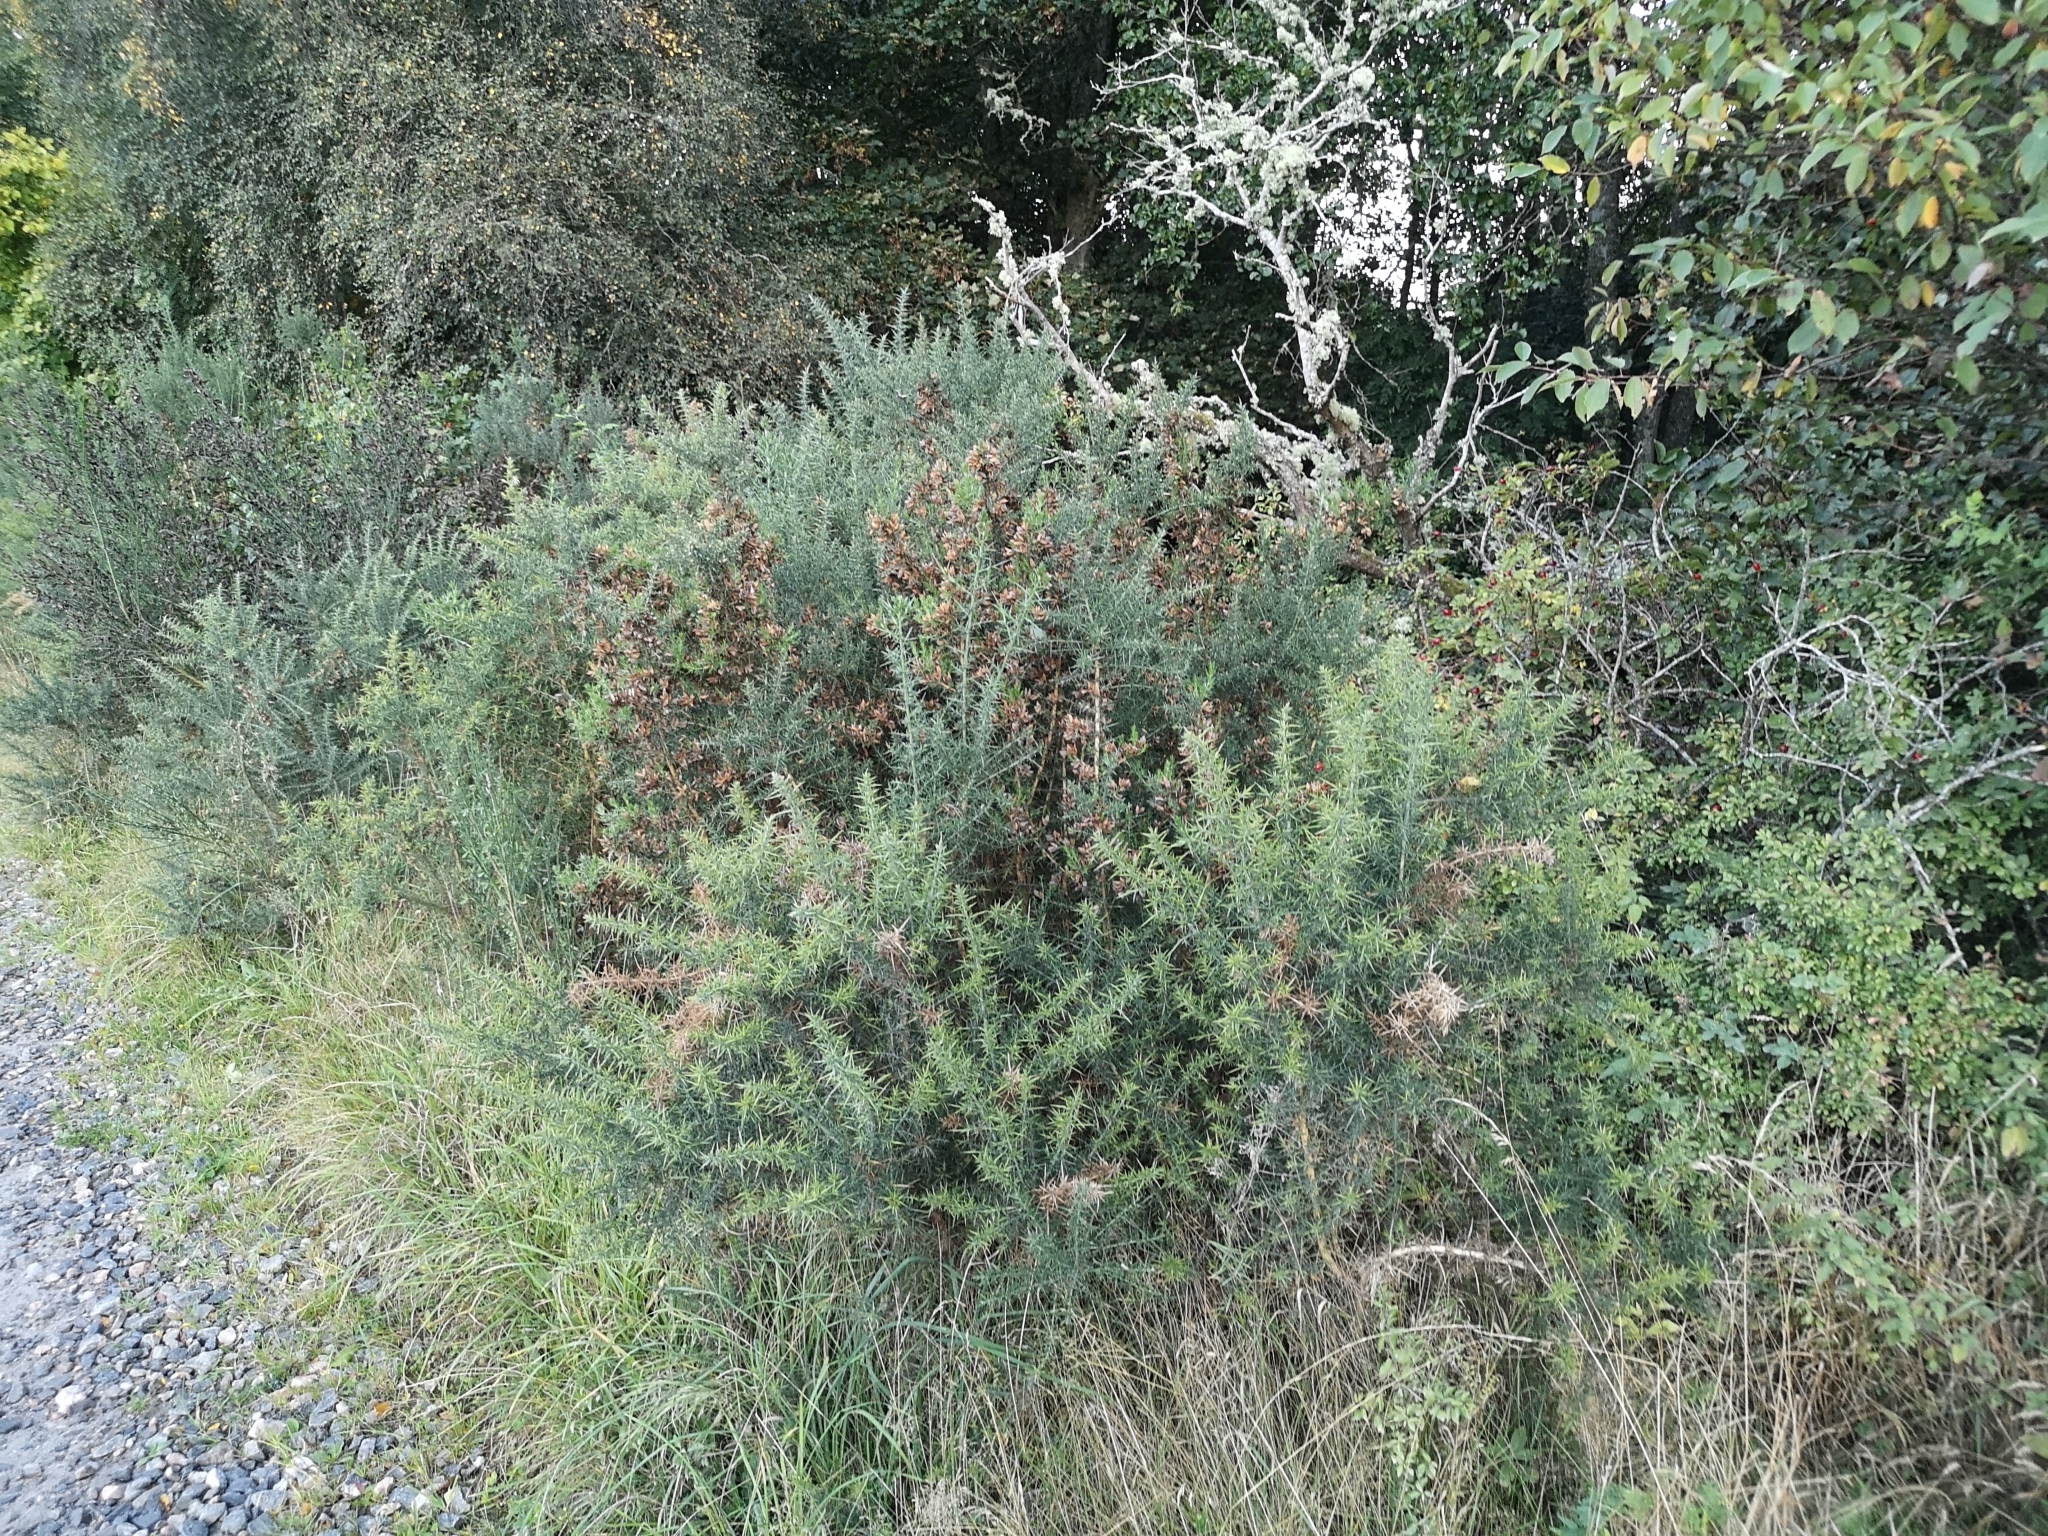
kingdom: Plantae
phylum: Tracheophyta
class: Magnoliopsida
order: Fabales
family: Fabaceae
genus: Ulex
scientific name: Ulex europaeus
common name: Common gorse
